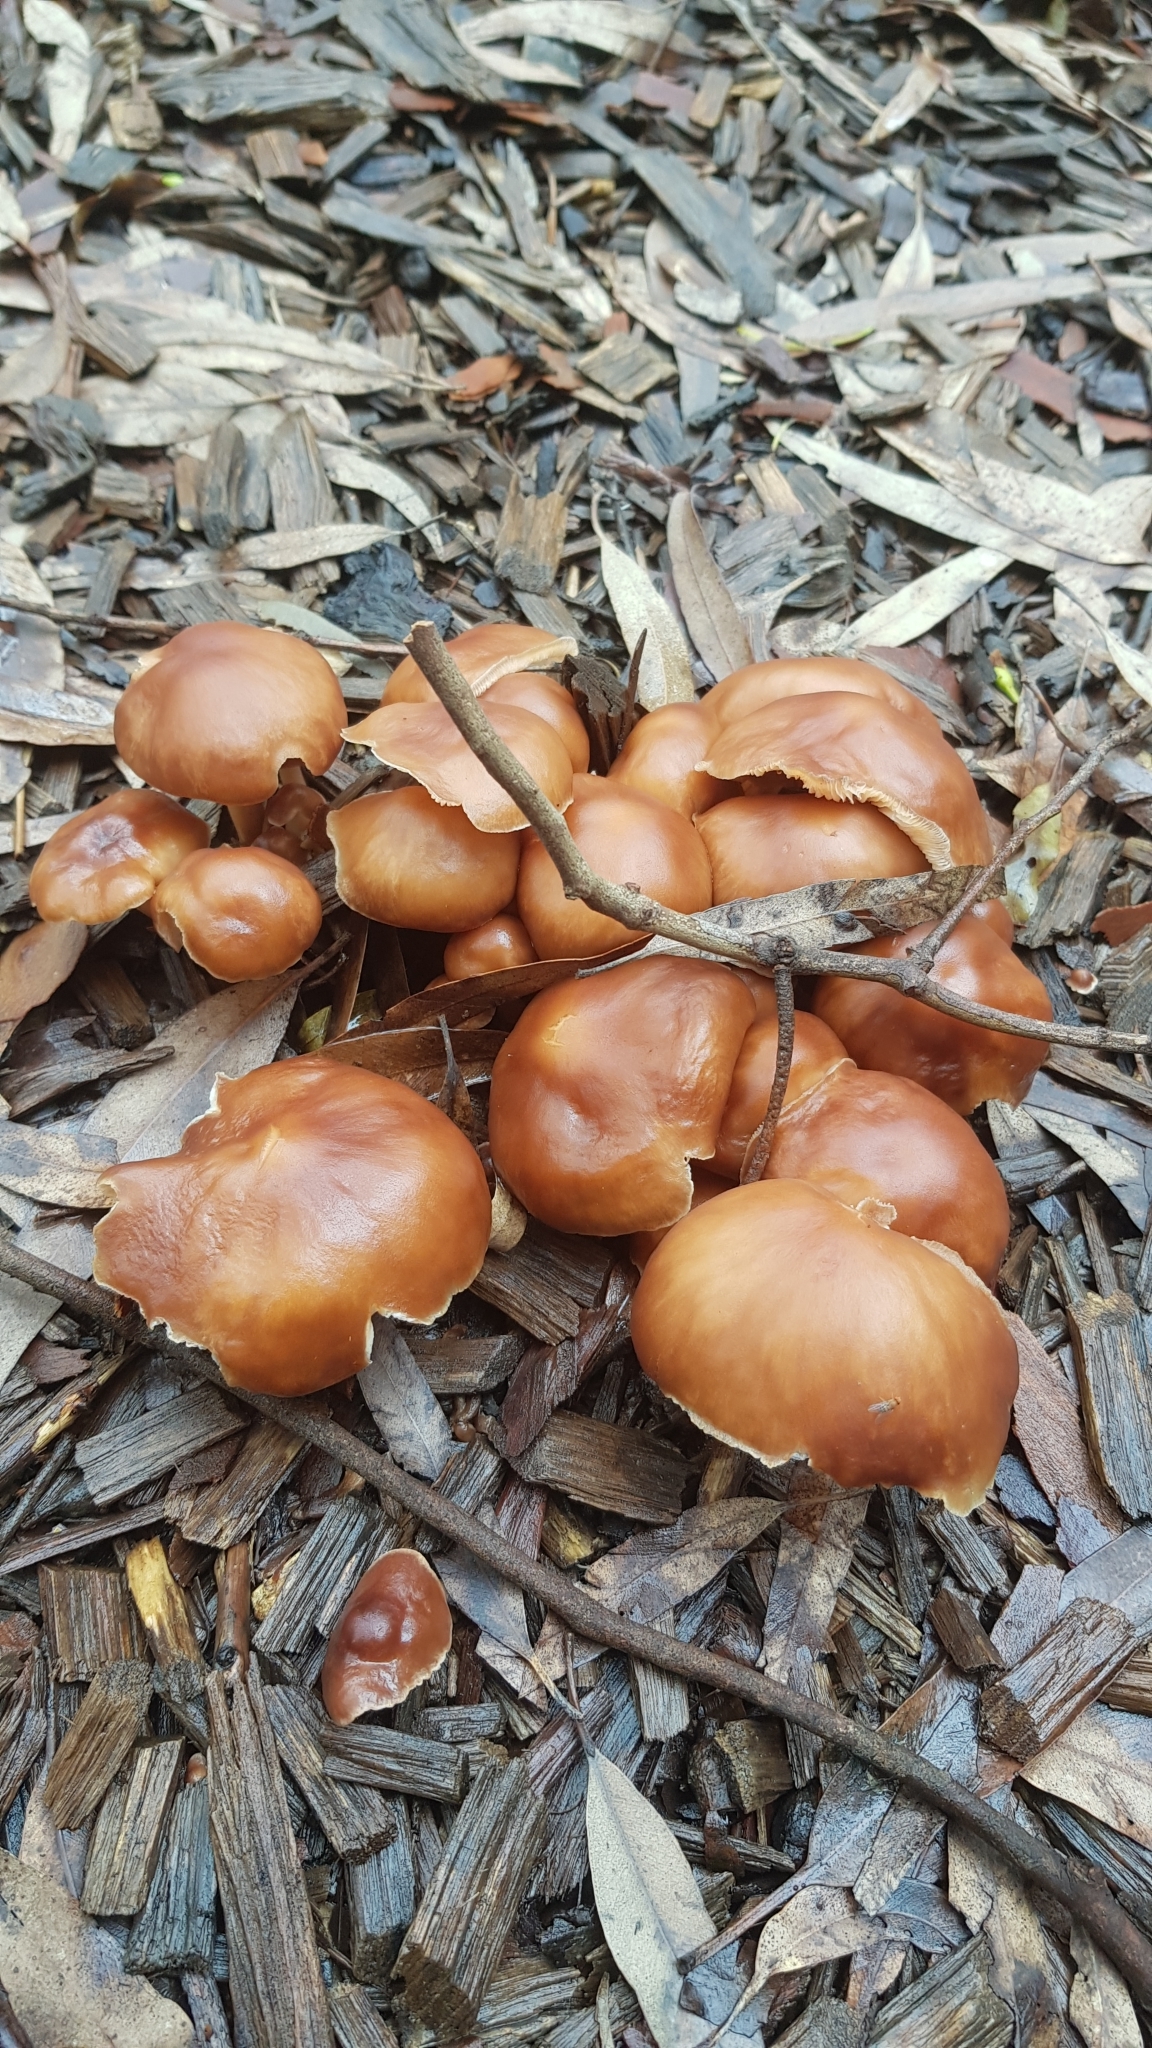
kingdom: Fungi
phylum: Basidiomycota
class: Agaricomycetes
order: Agaricales
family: Omphalotaceae
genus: Collybiopsis
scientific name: Collybiopsis luxurians
